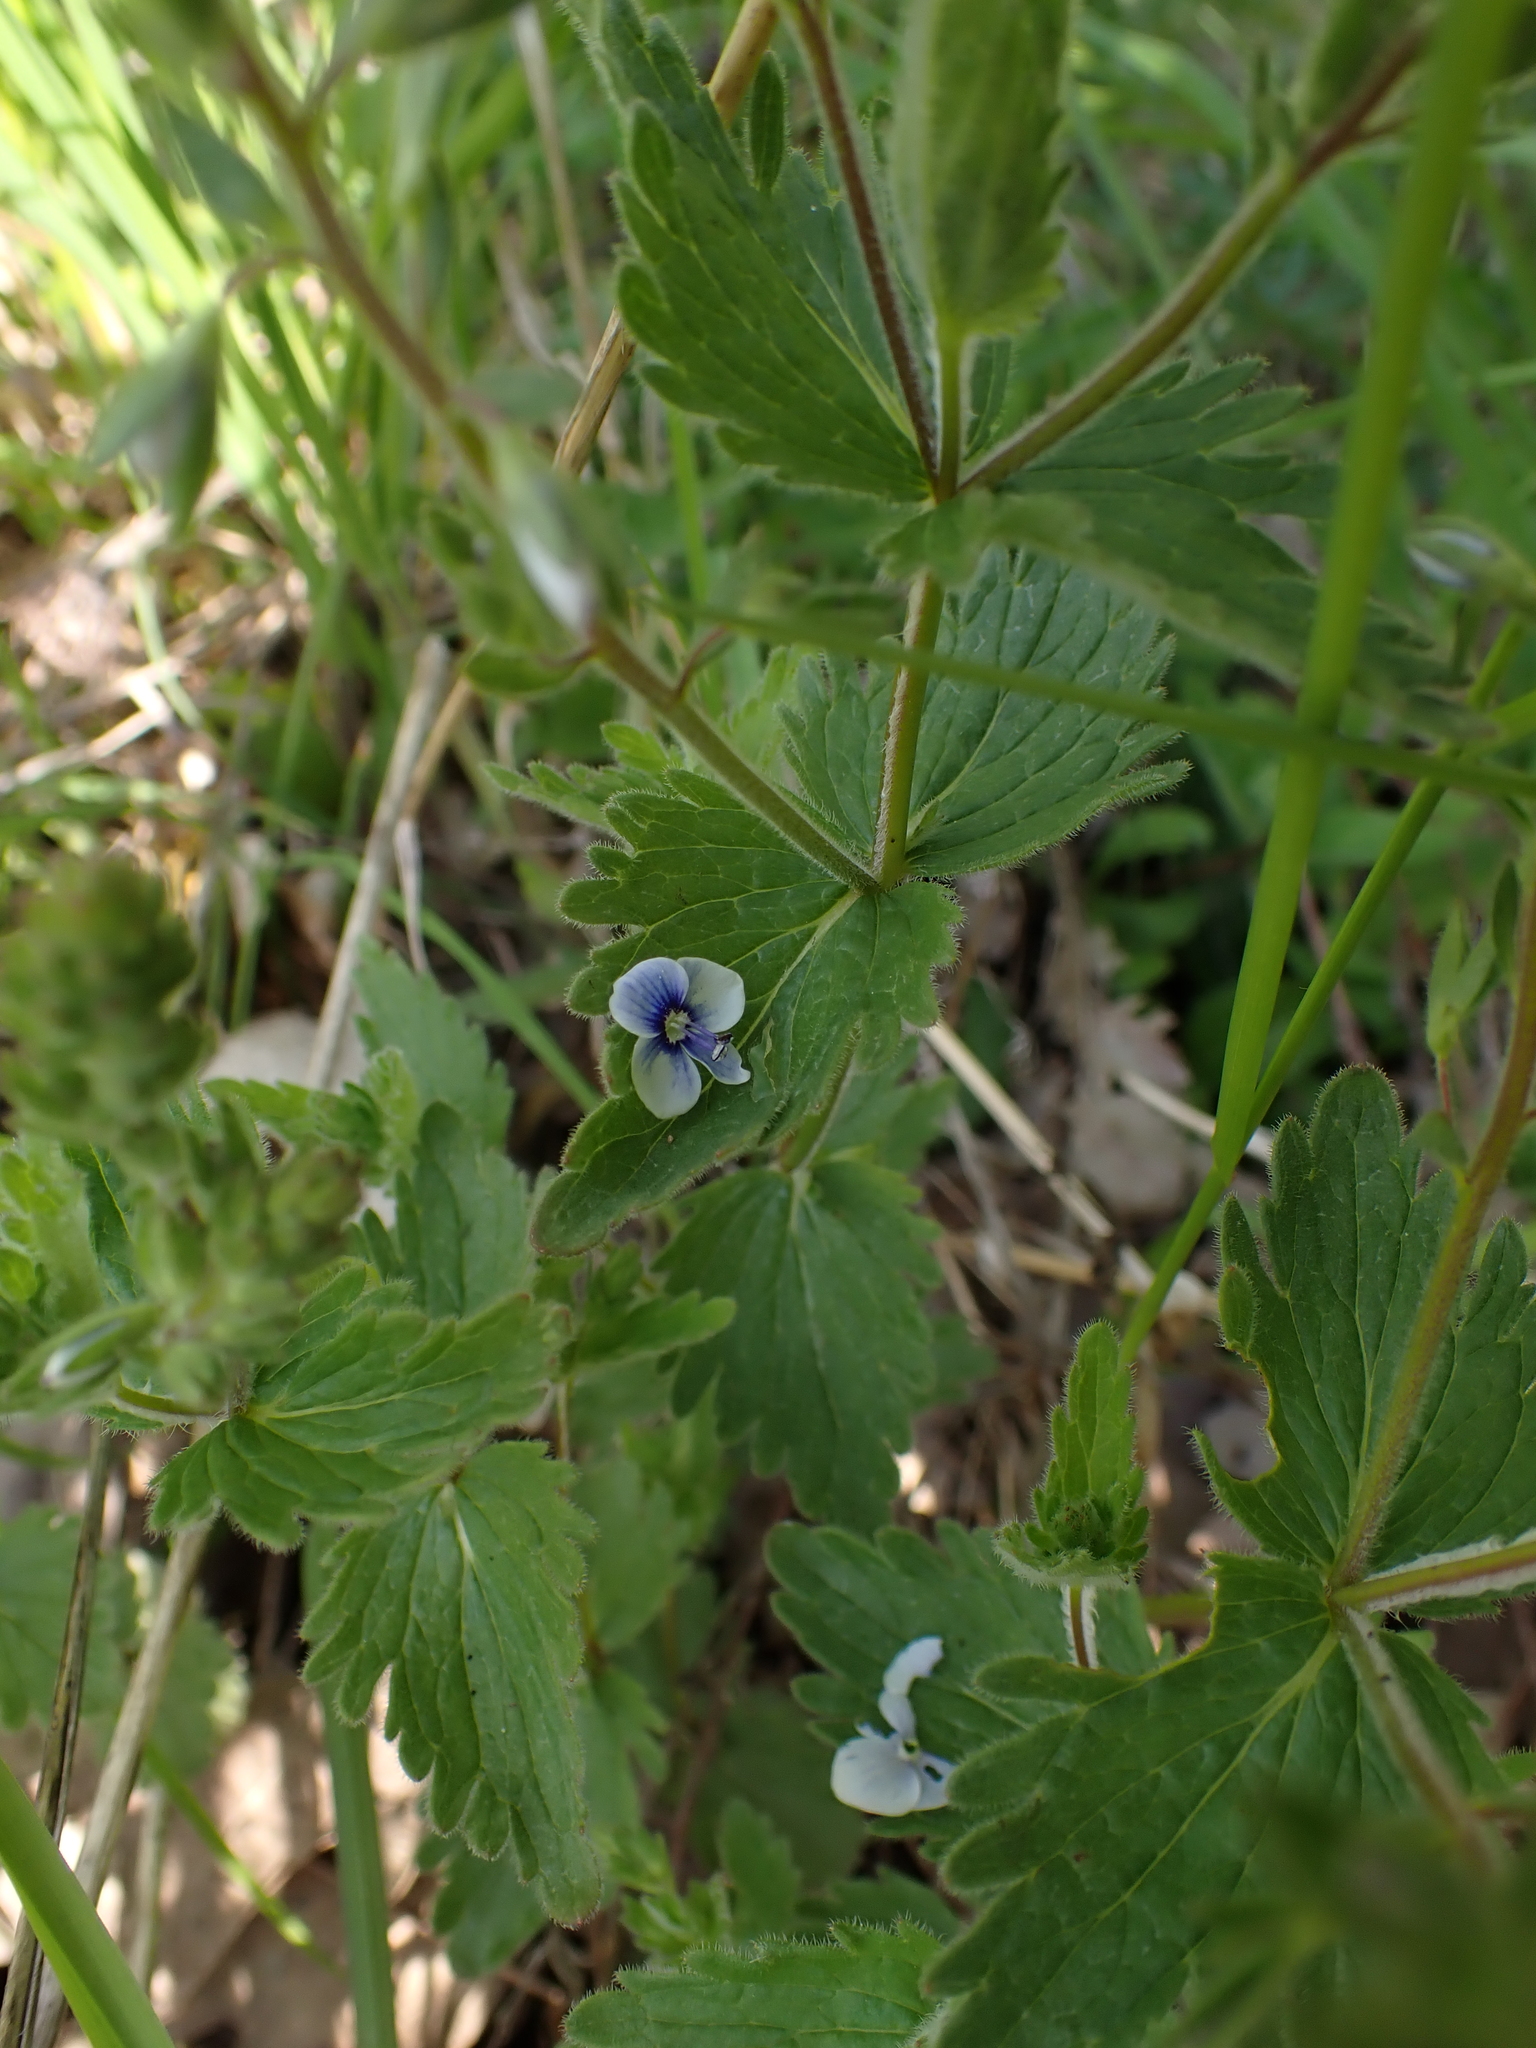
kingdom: Plantae
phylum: Tracheophyta
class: Magnoliopsida
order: Lamiales
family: Plantaginaceae
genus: Veronica
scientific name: Veronica vindobonensis
